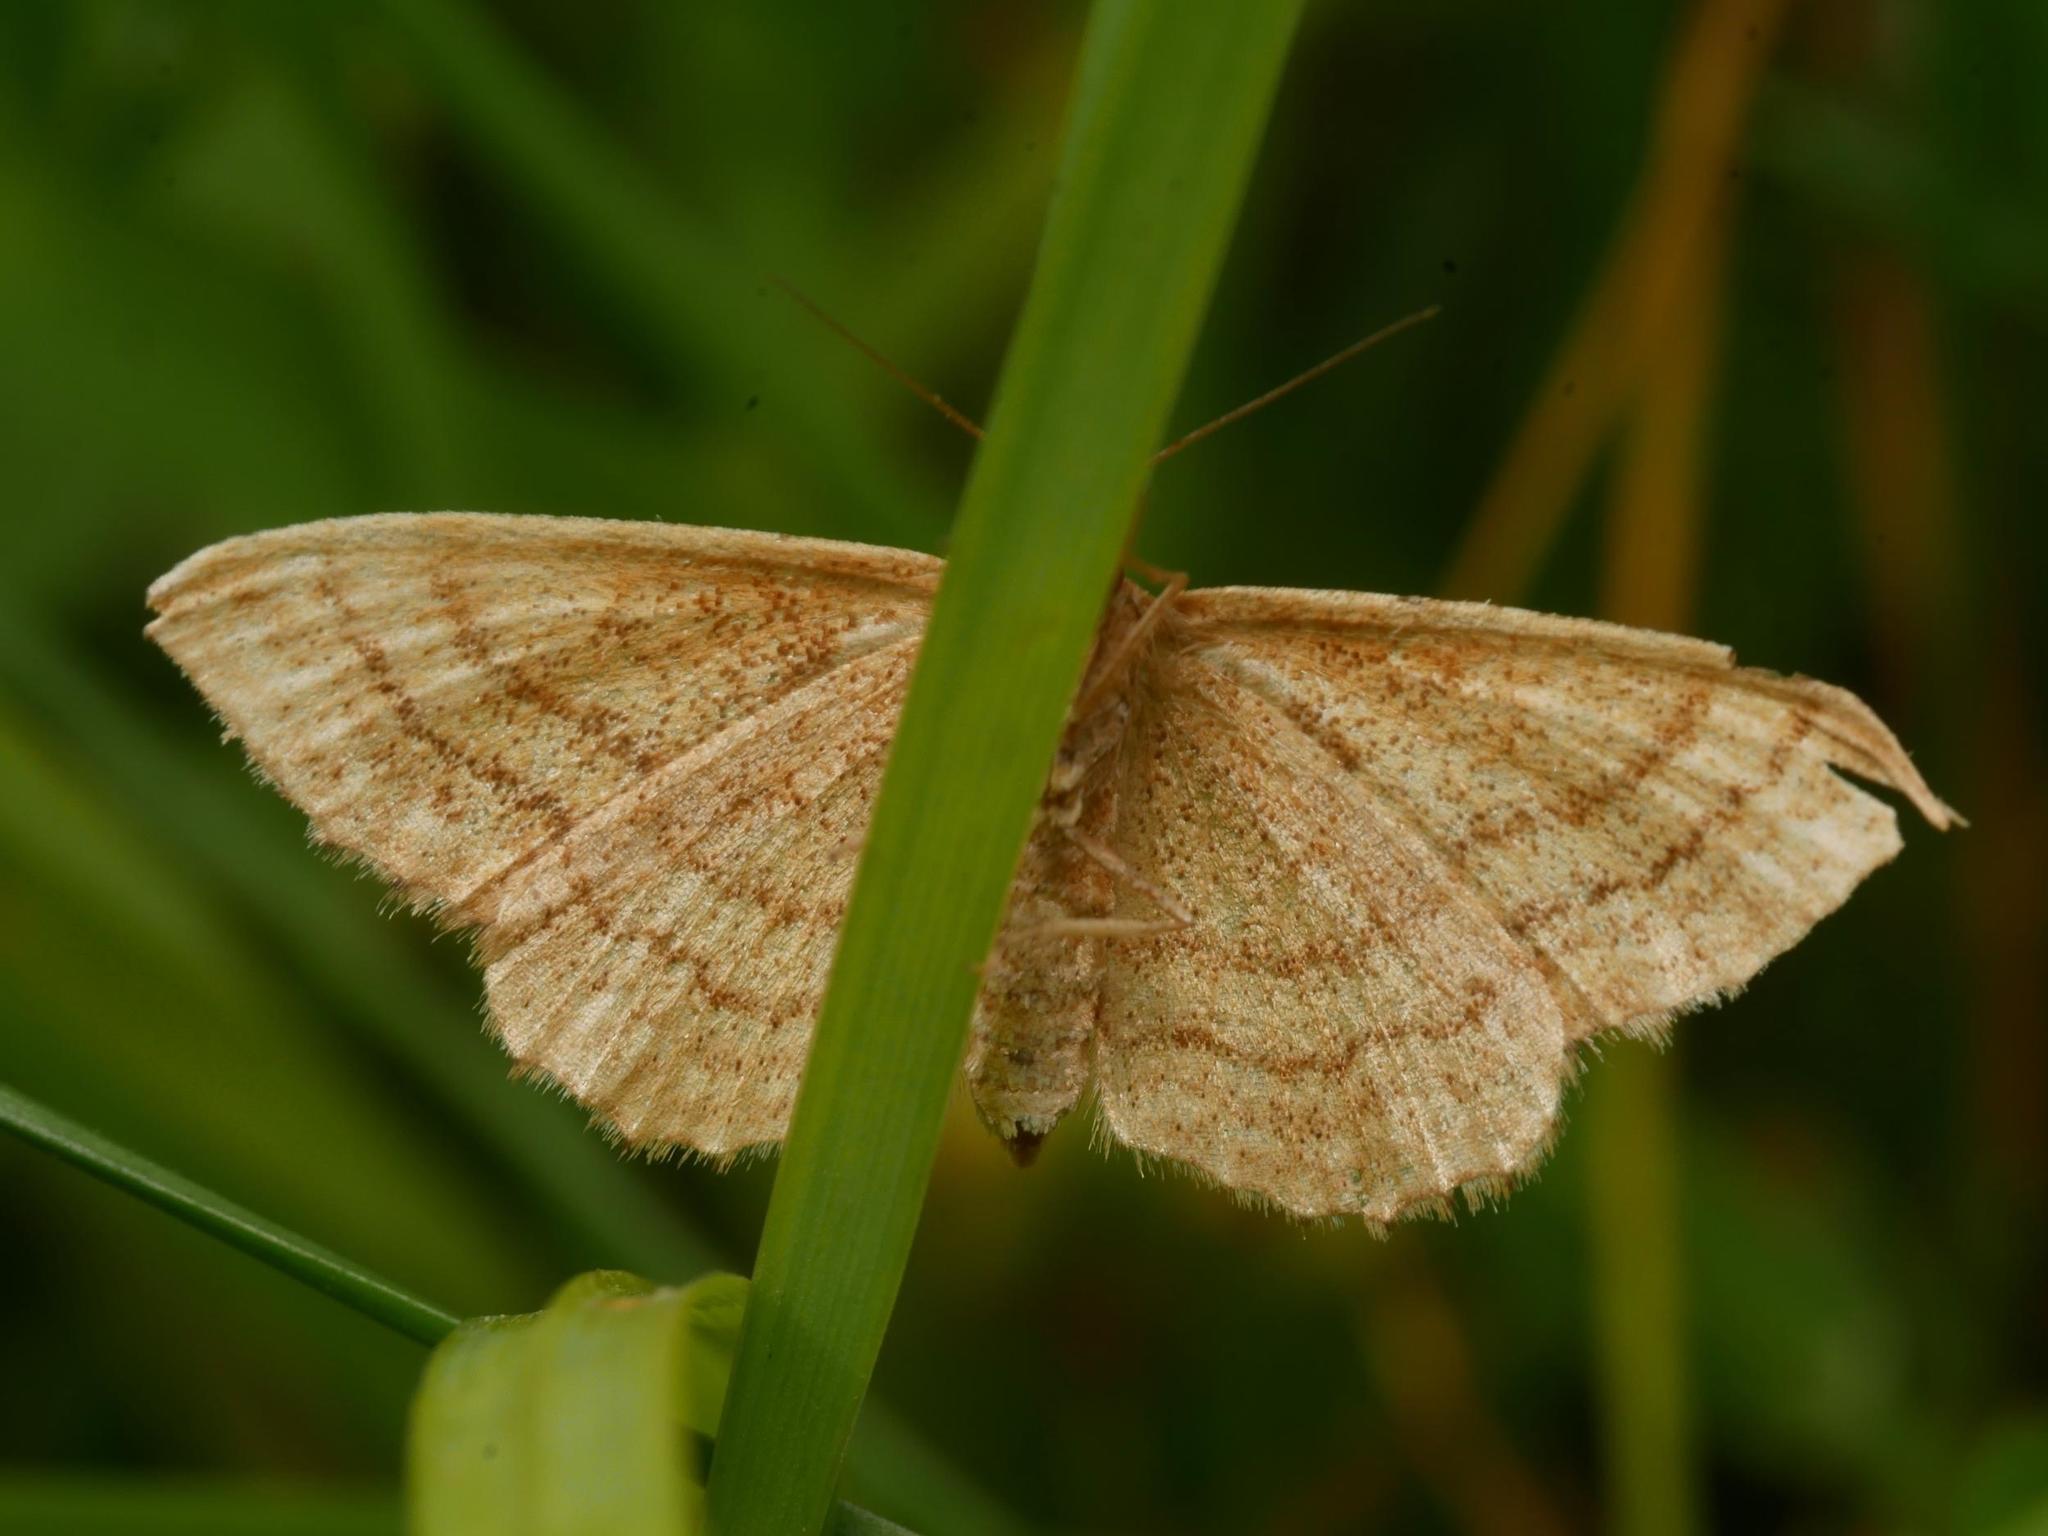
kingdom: Animalia
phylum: Arthropoda
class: Insecta
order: Lepidoptera
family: Geometridae
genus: Idaea
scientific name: Idaea ochrata
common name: Bright wave
